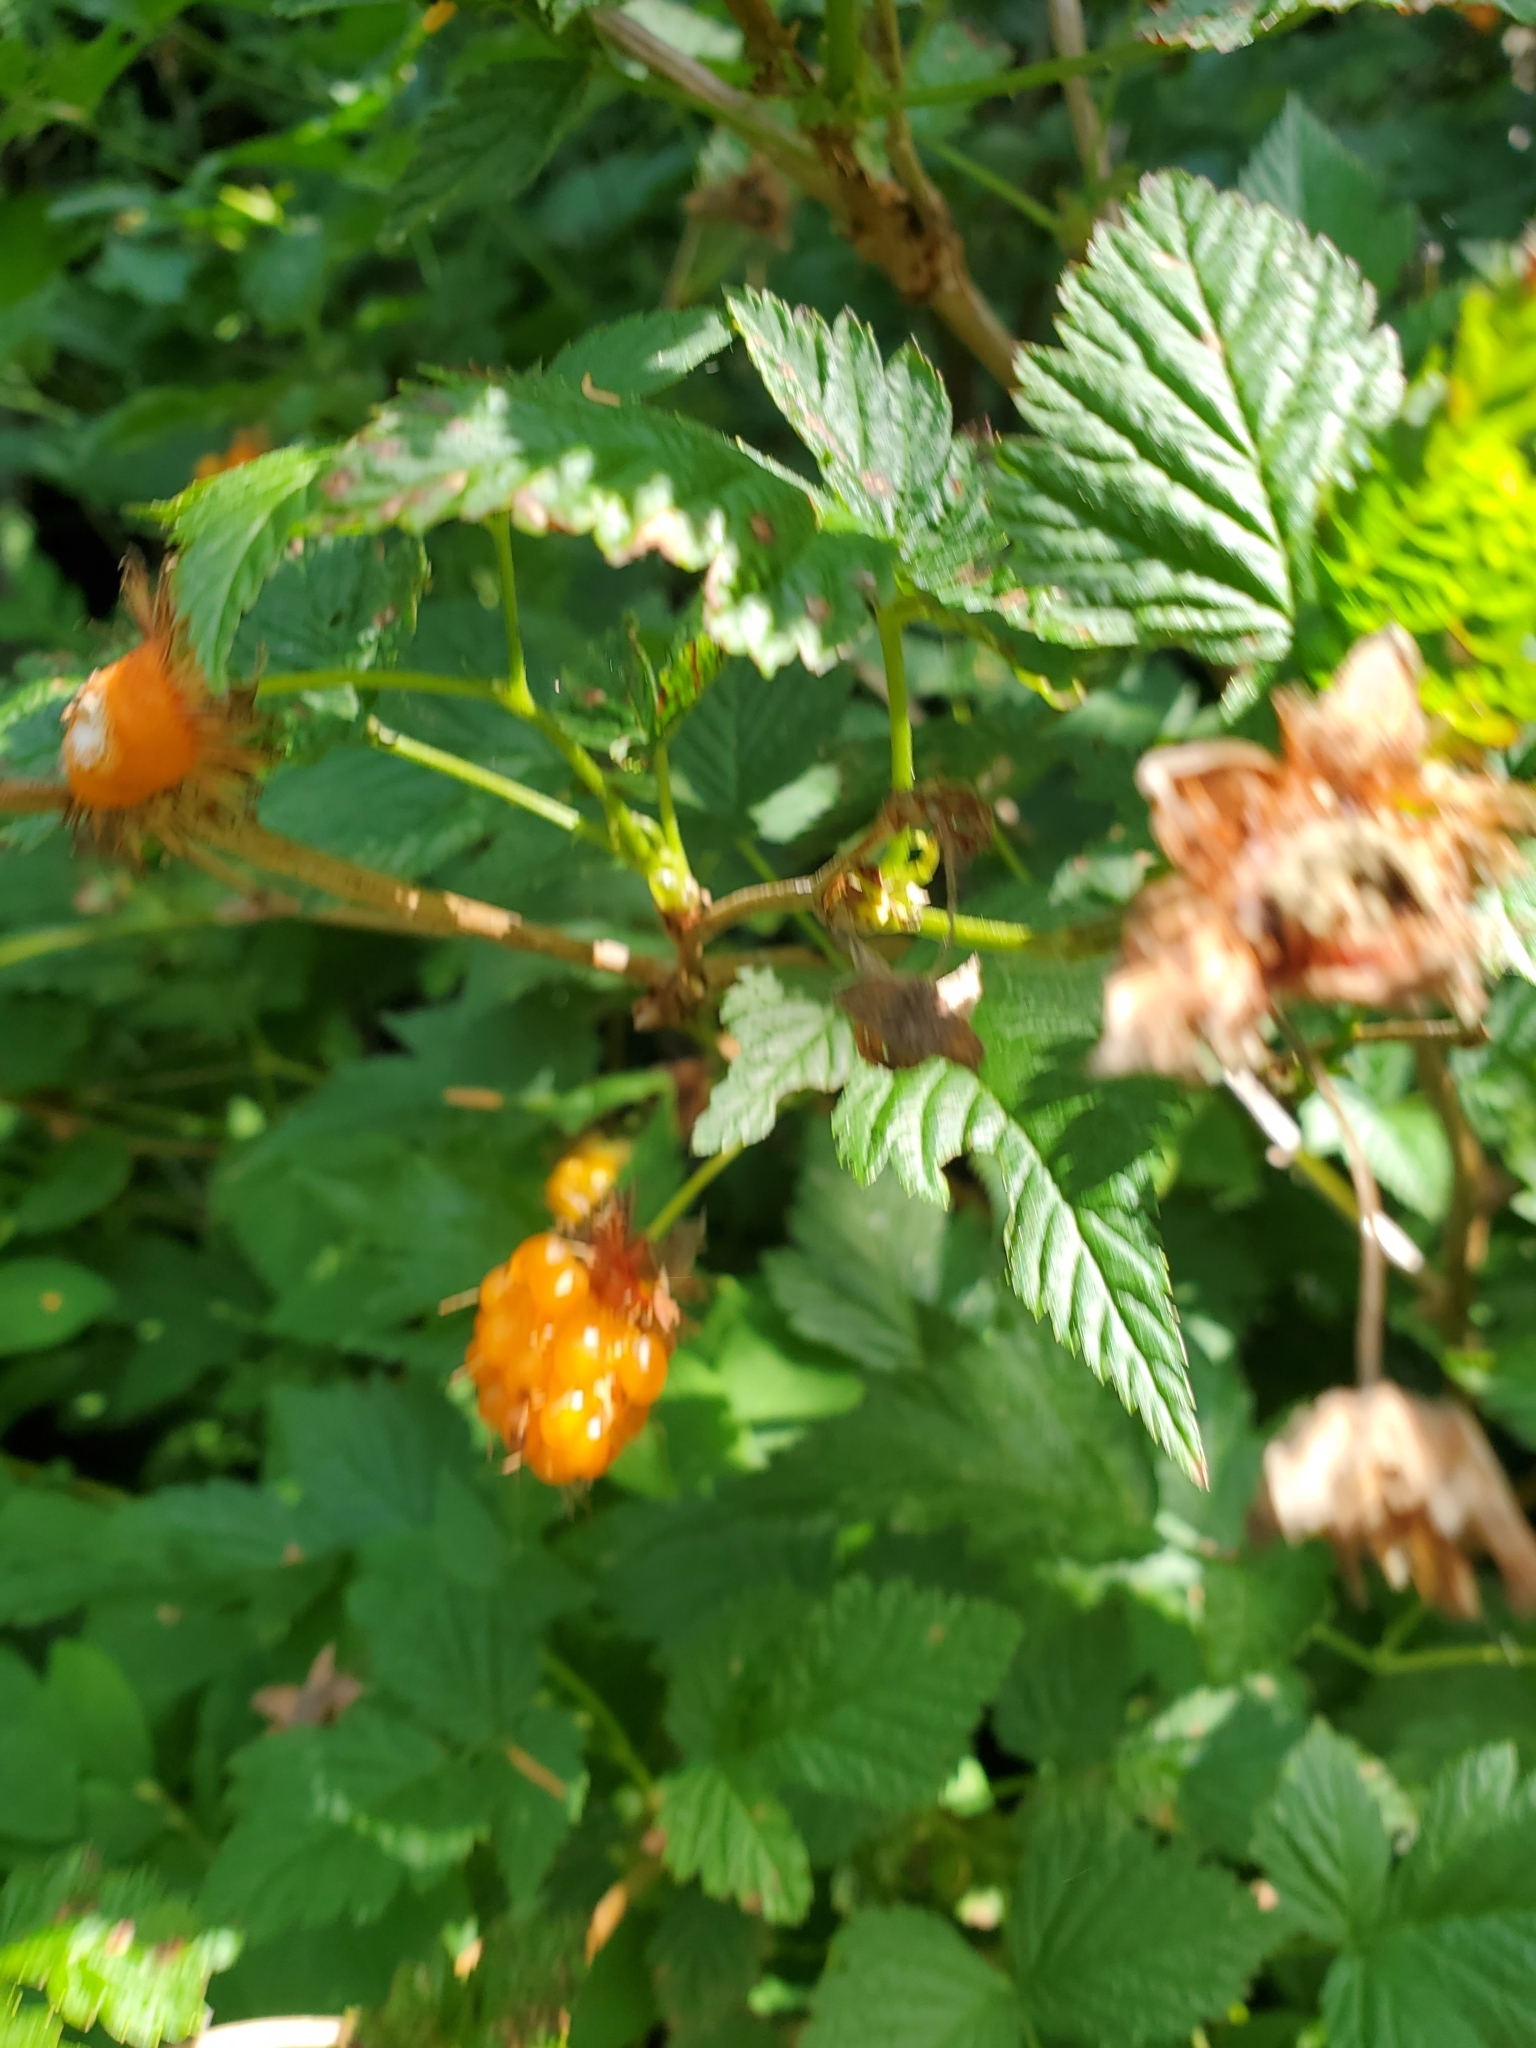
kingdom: Plantae
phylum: Tracheophyta
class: Magnoliopsida
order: Rosales
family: Rosaceae
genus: Rubus
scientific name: Rubus spectabilis
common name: Salmonberry
